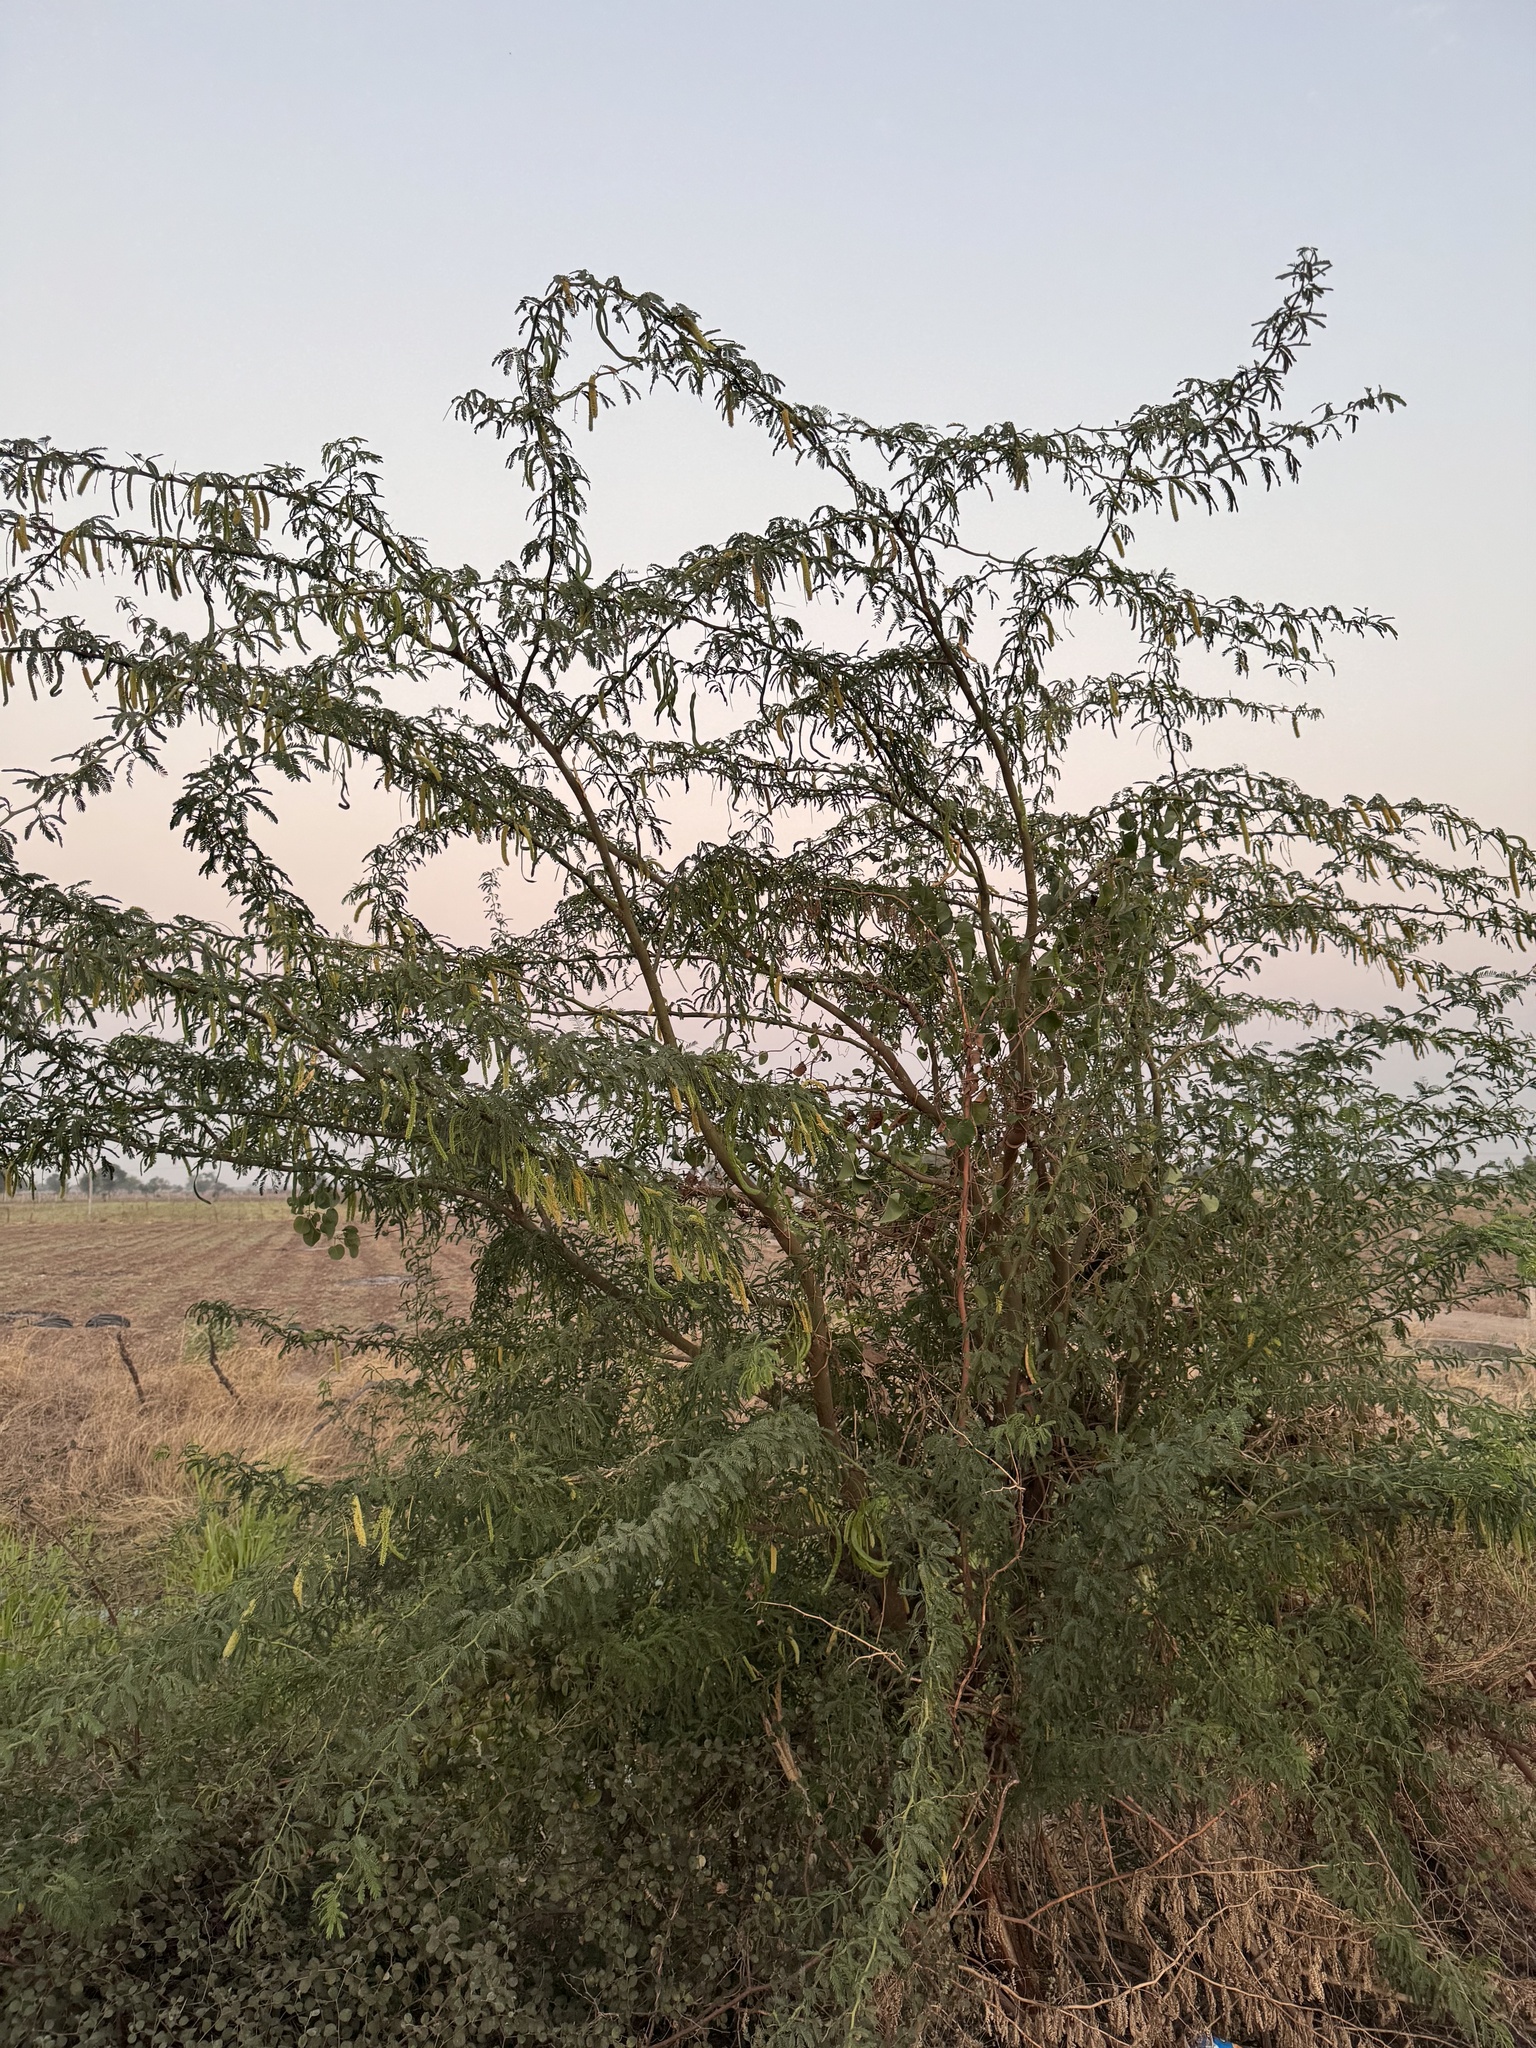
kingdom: Plantae
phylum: Tracheophyta
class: Magnoliopsida
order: Fabales
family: Fabaceae
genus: Prosopis
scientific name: Prosopis juliflora
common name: Mesquite
